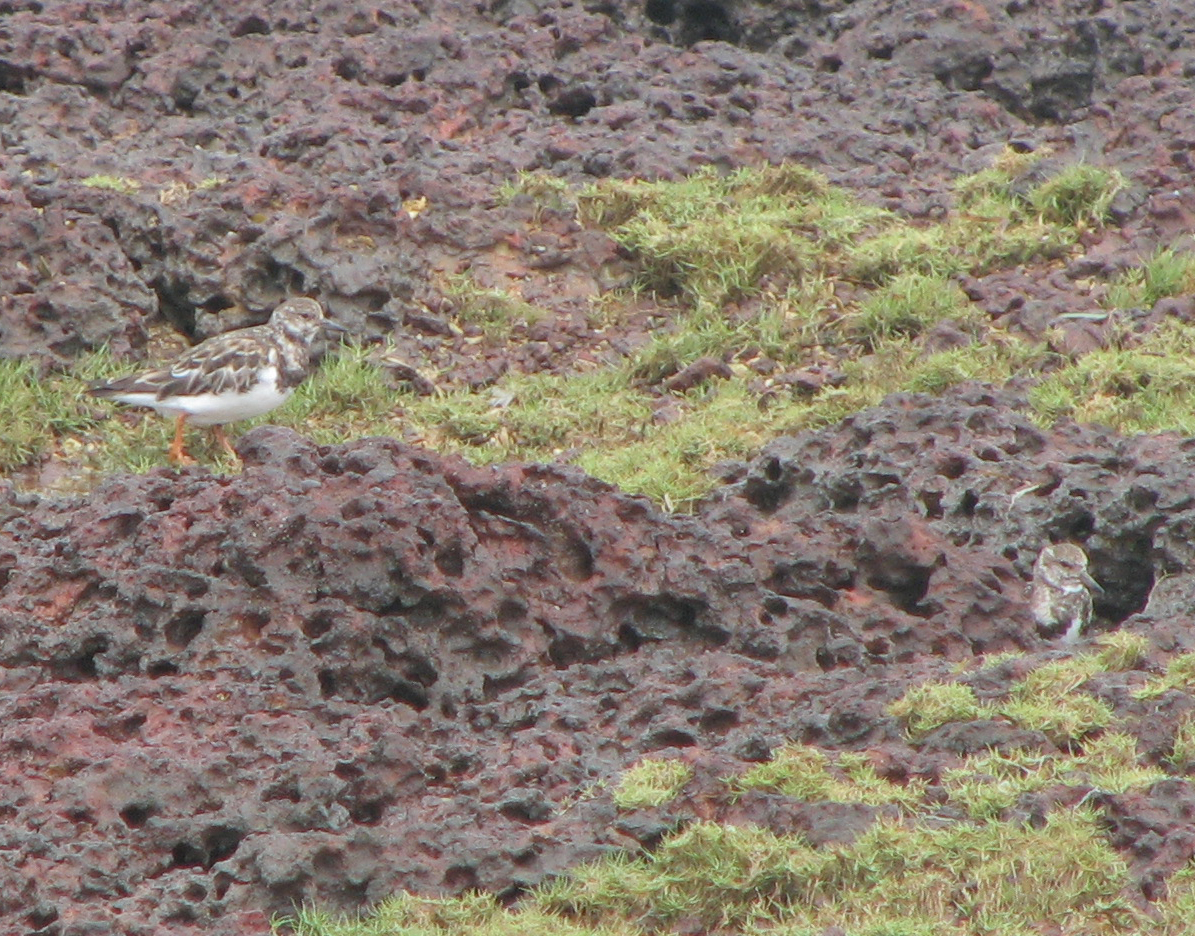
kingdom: Animalia
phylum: Chordata
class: Aves
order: Charadriiformes
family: Scolopacidae
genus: Arenaria
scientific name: Arenaria interpres
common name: Ruddy turnstone
